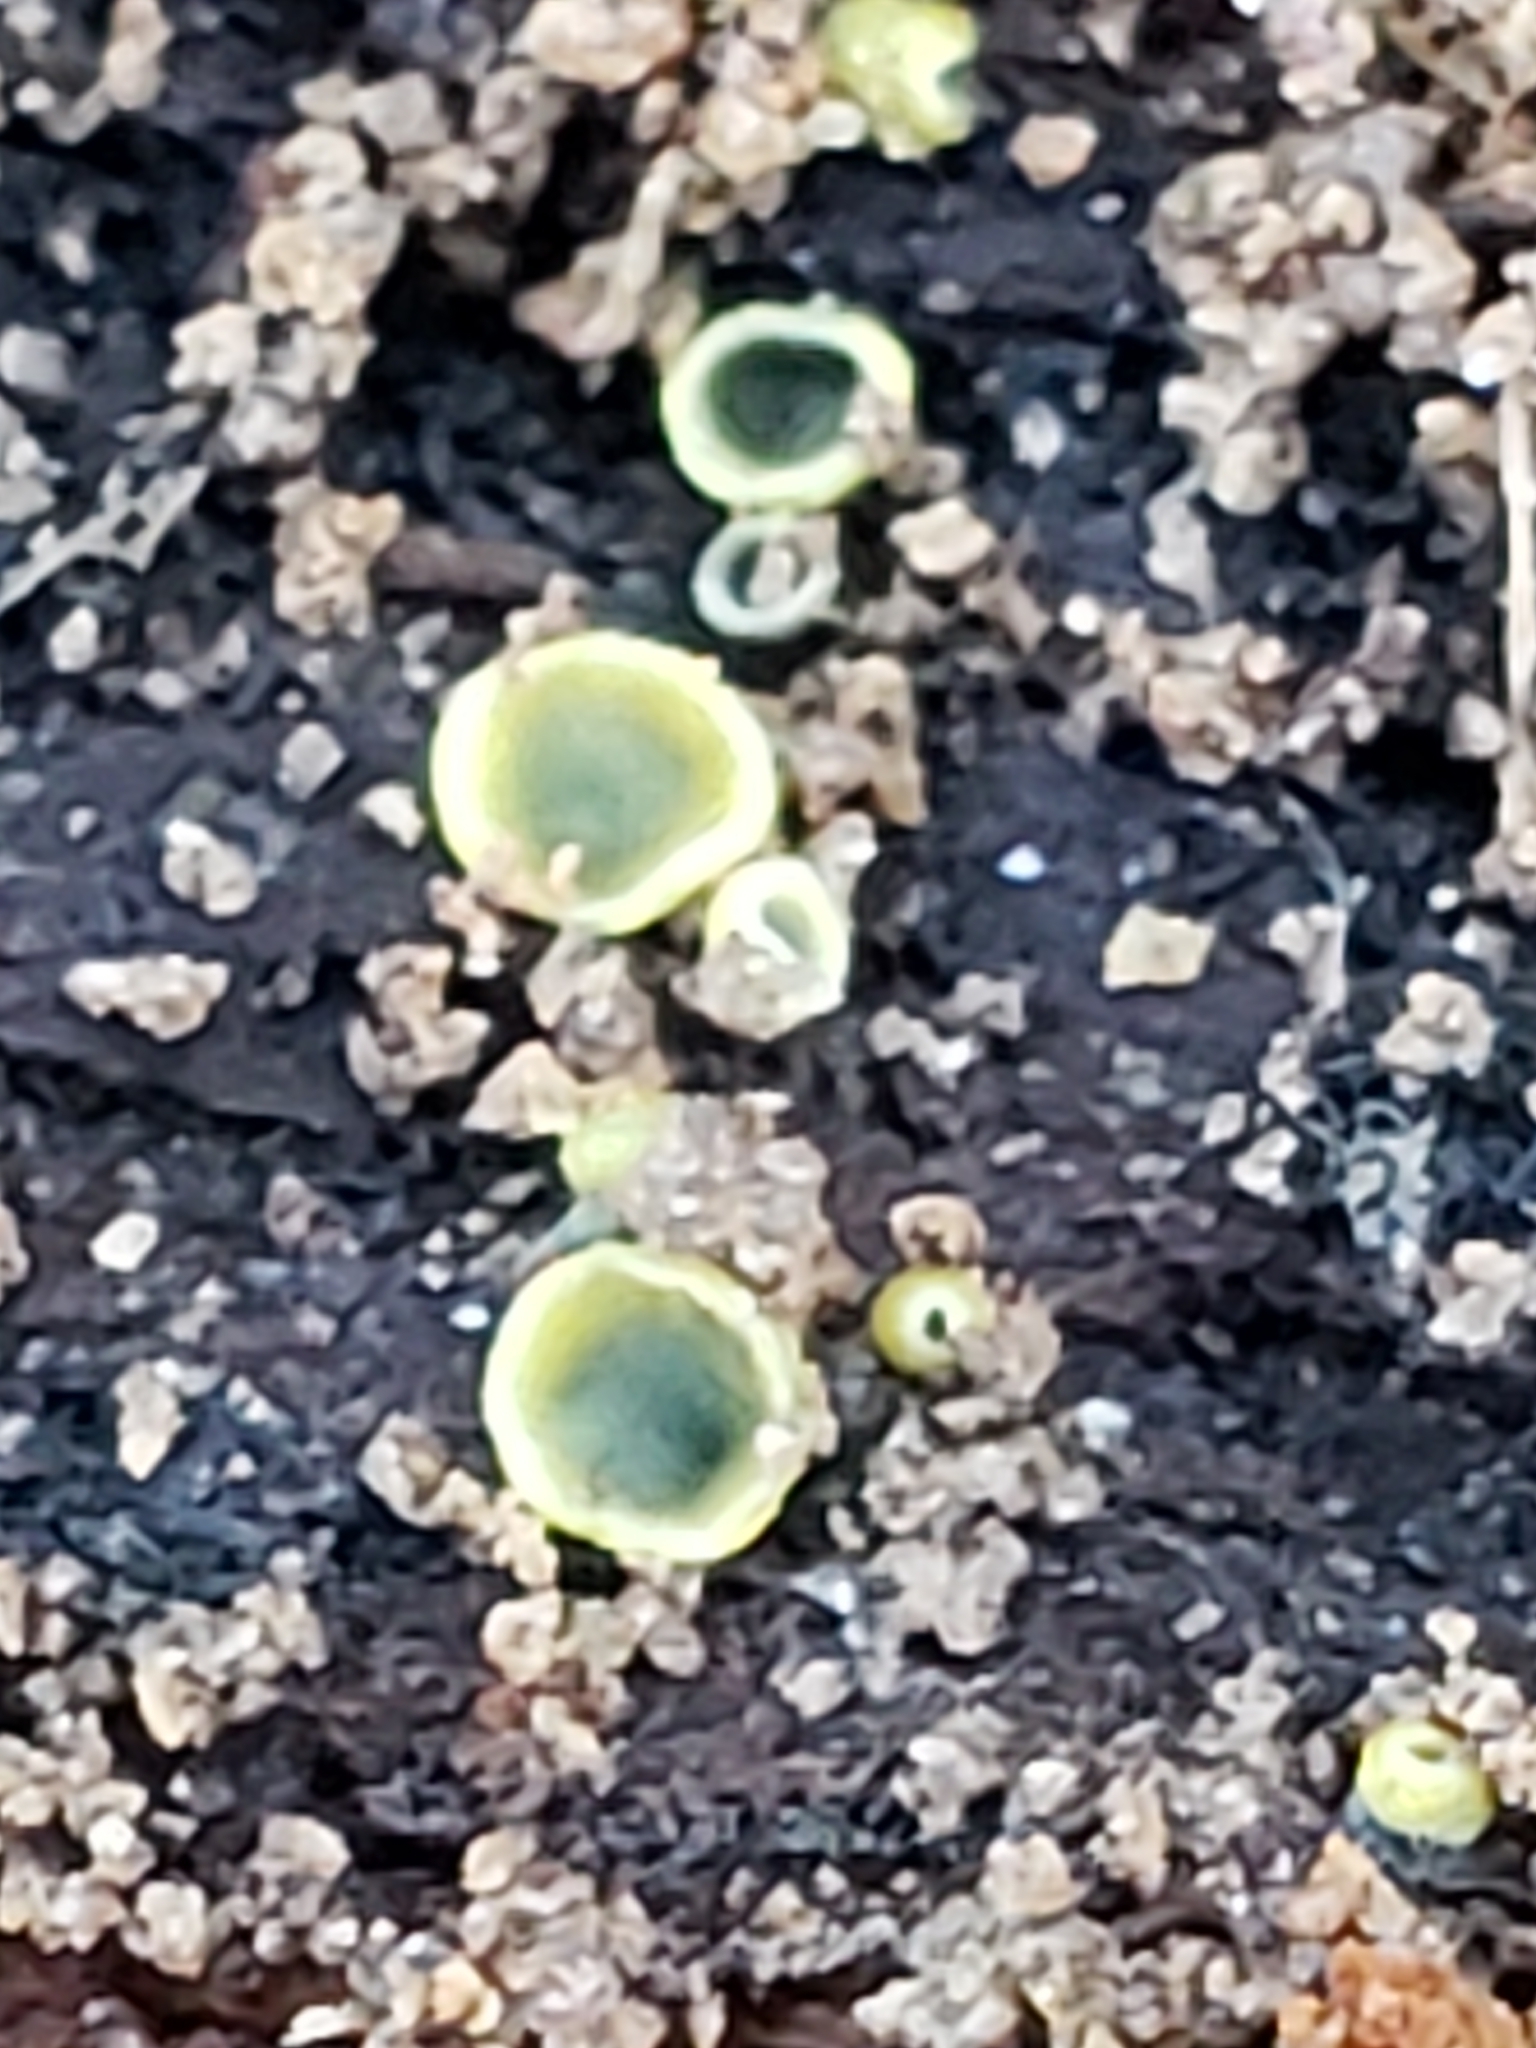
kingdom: Fungi
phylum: Ascomycota
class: Leotiomycetes
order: Helotiales
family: Chlorospleniaceae
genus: Chlorosplenium
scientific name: Chlorosplenium chlora
